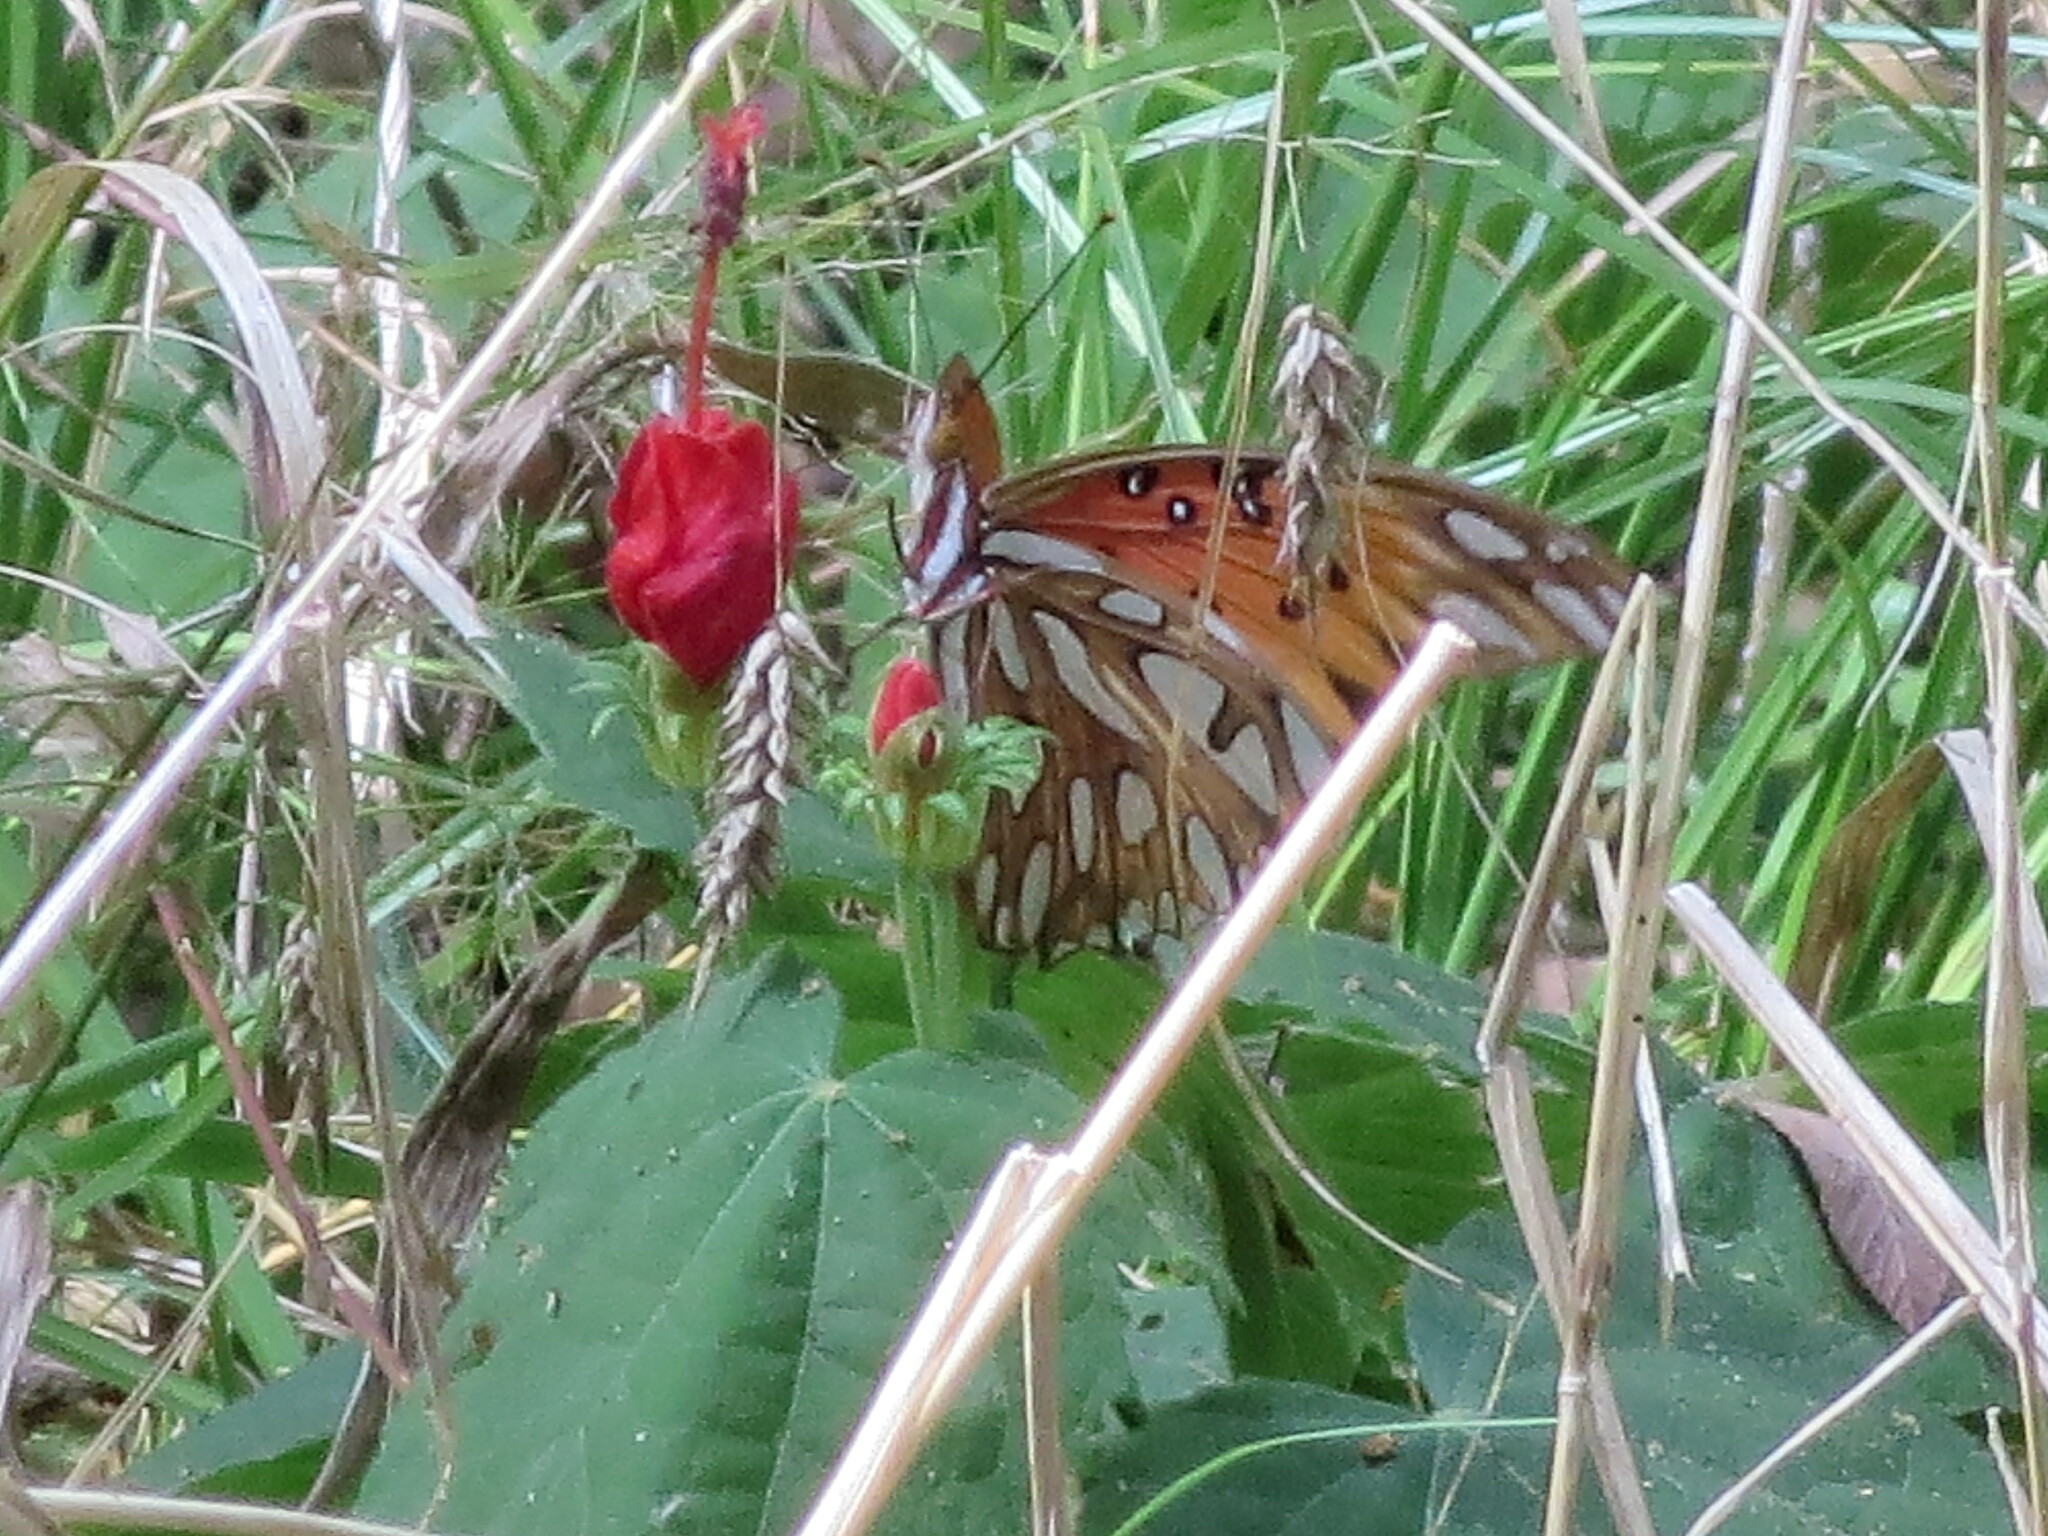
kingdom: Animalia
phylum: Arthropoda
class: Insecta
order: Lepidoptera
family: Nymphalidae
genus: Dione
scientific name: Dione vanillae
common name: Gulf fritillary
